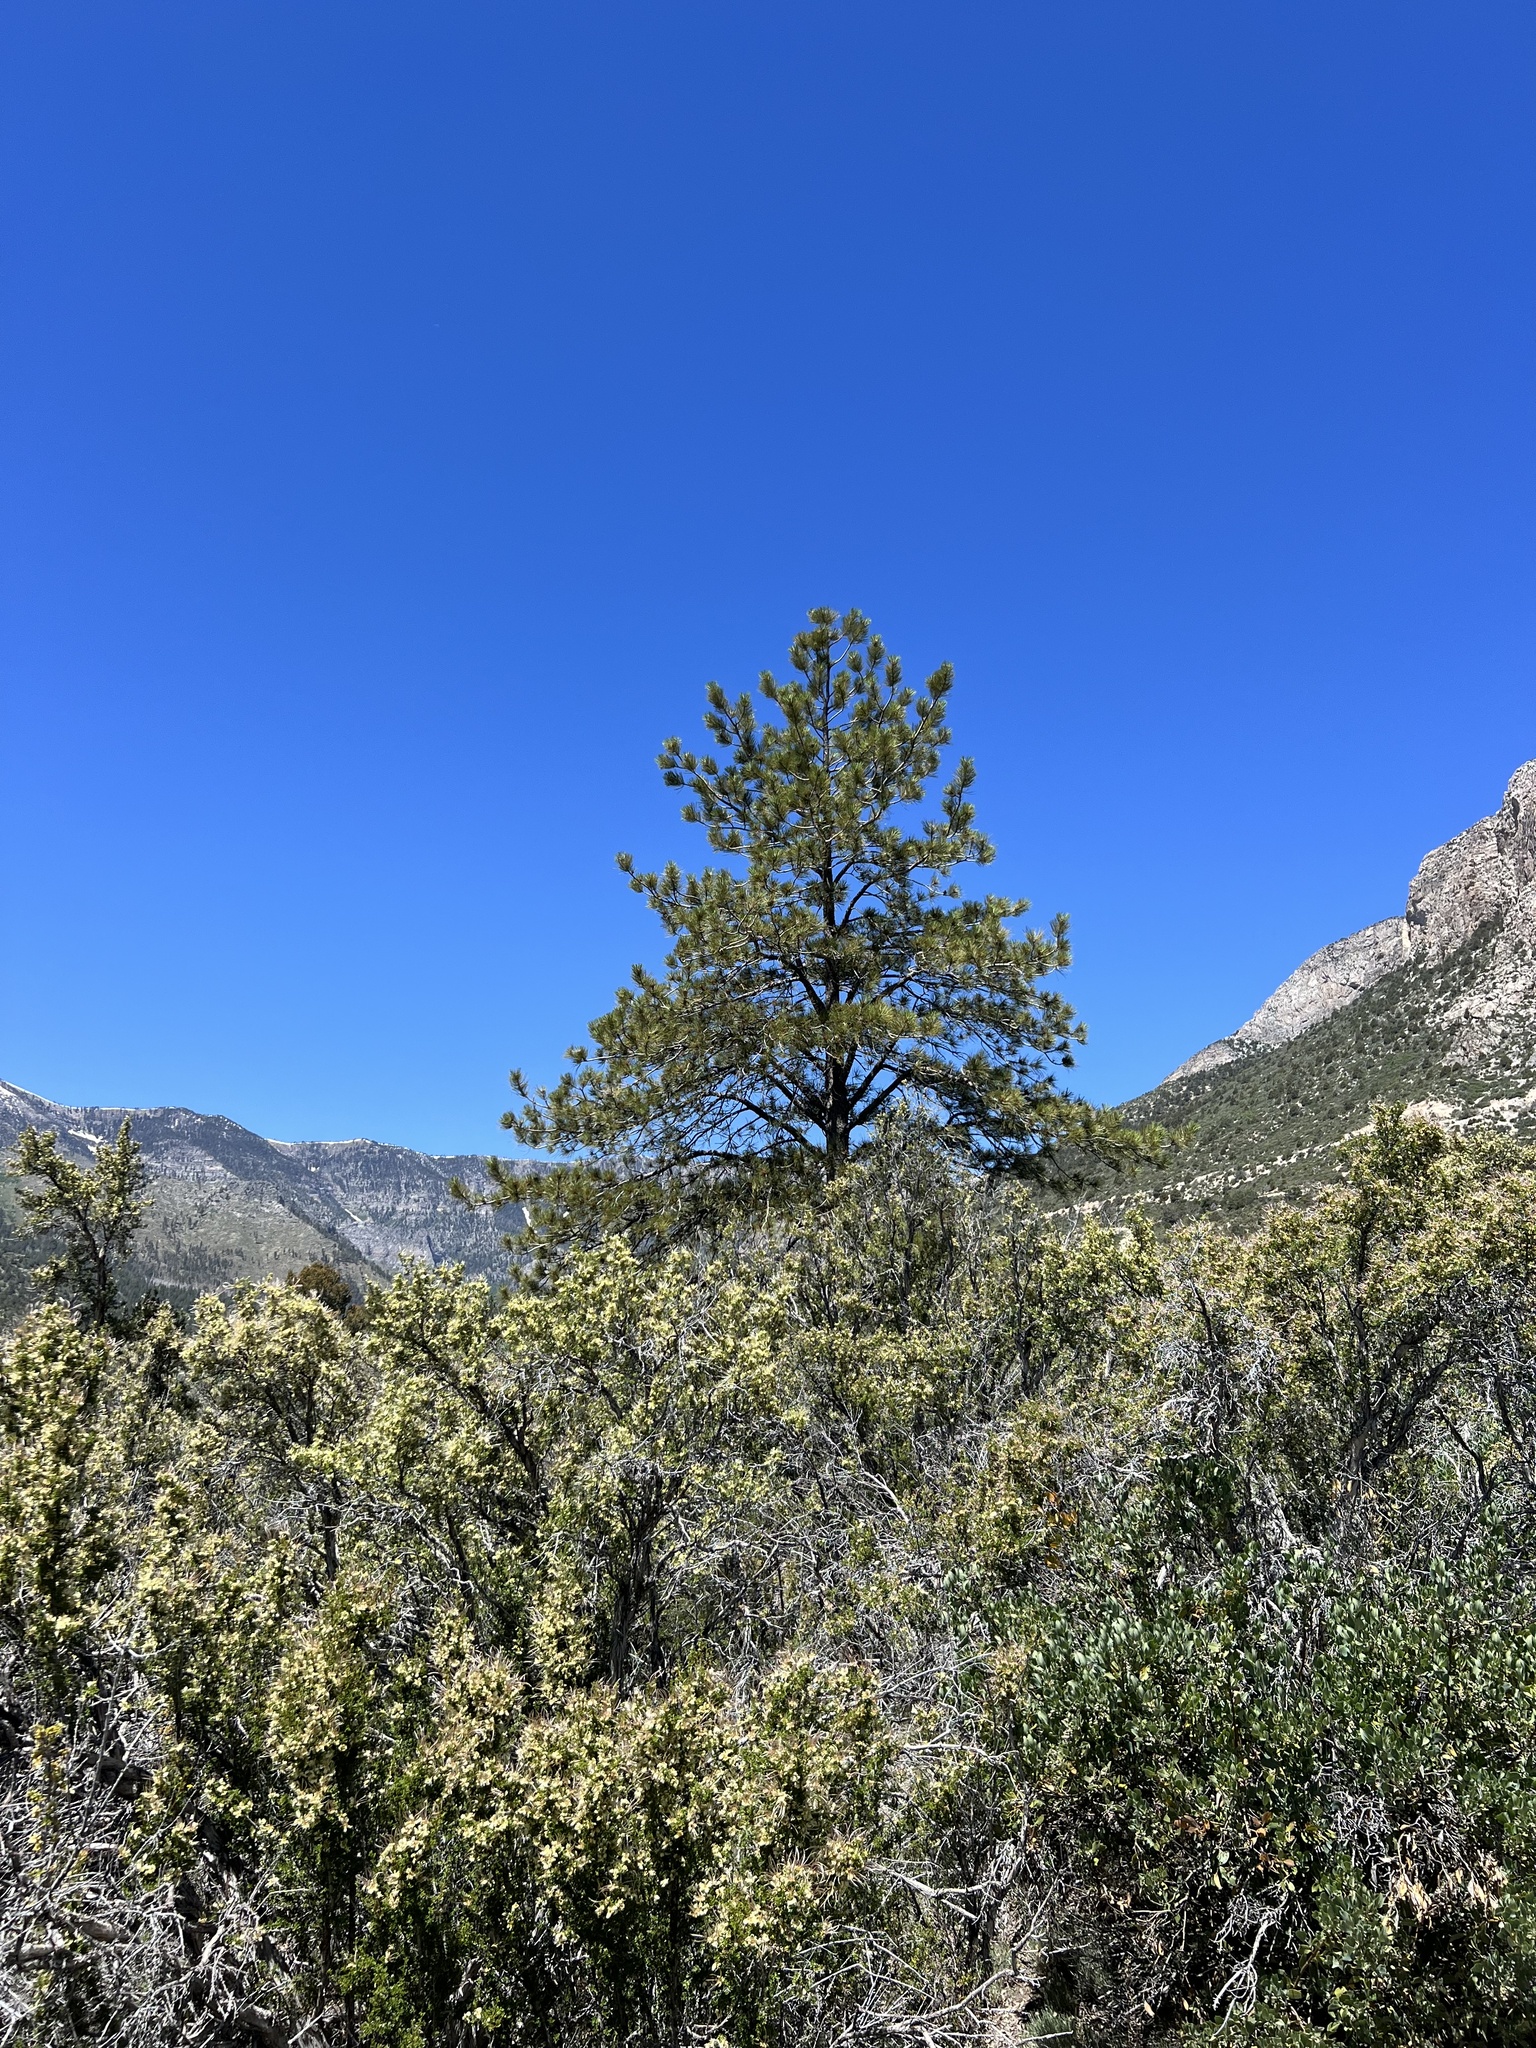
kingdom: Plantae
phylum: Tracheophyta
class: Pinopsida
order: Pinales
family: Pinaceae
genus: Pinus
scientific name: Pinus ponderosa
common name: Western yellow-pine
